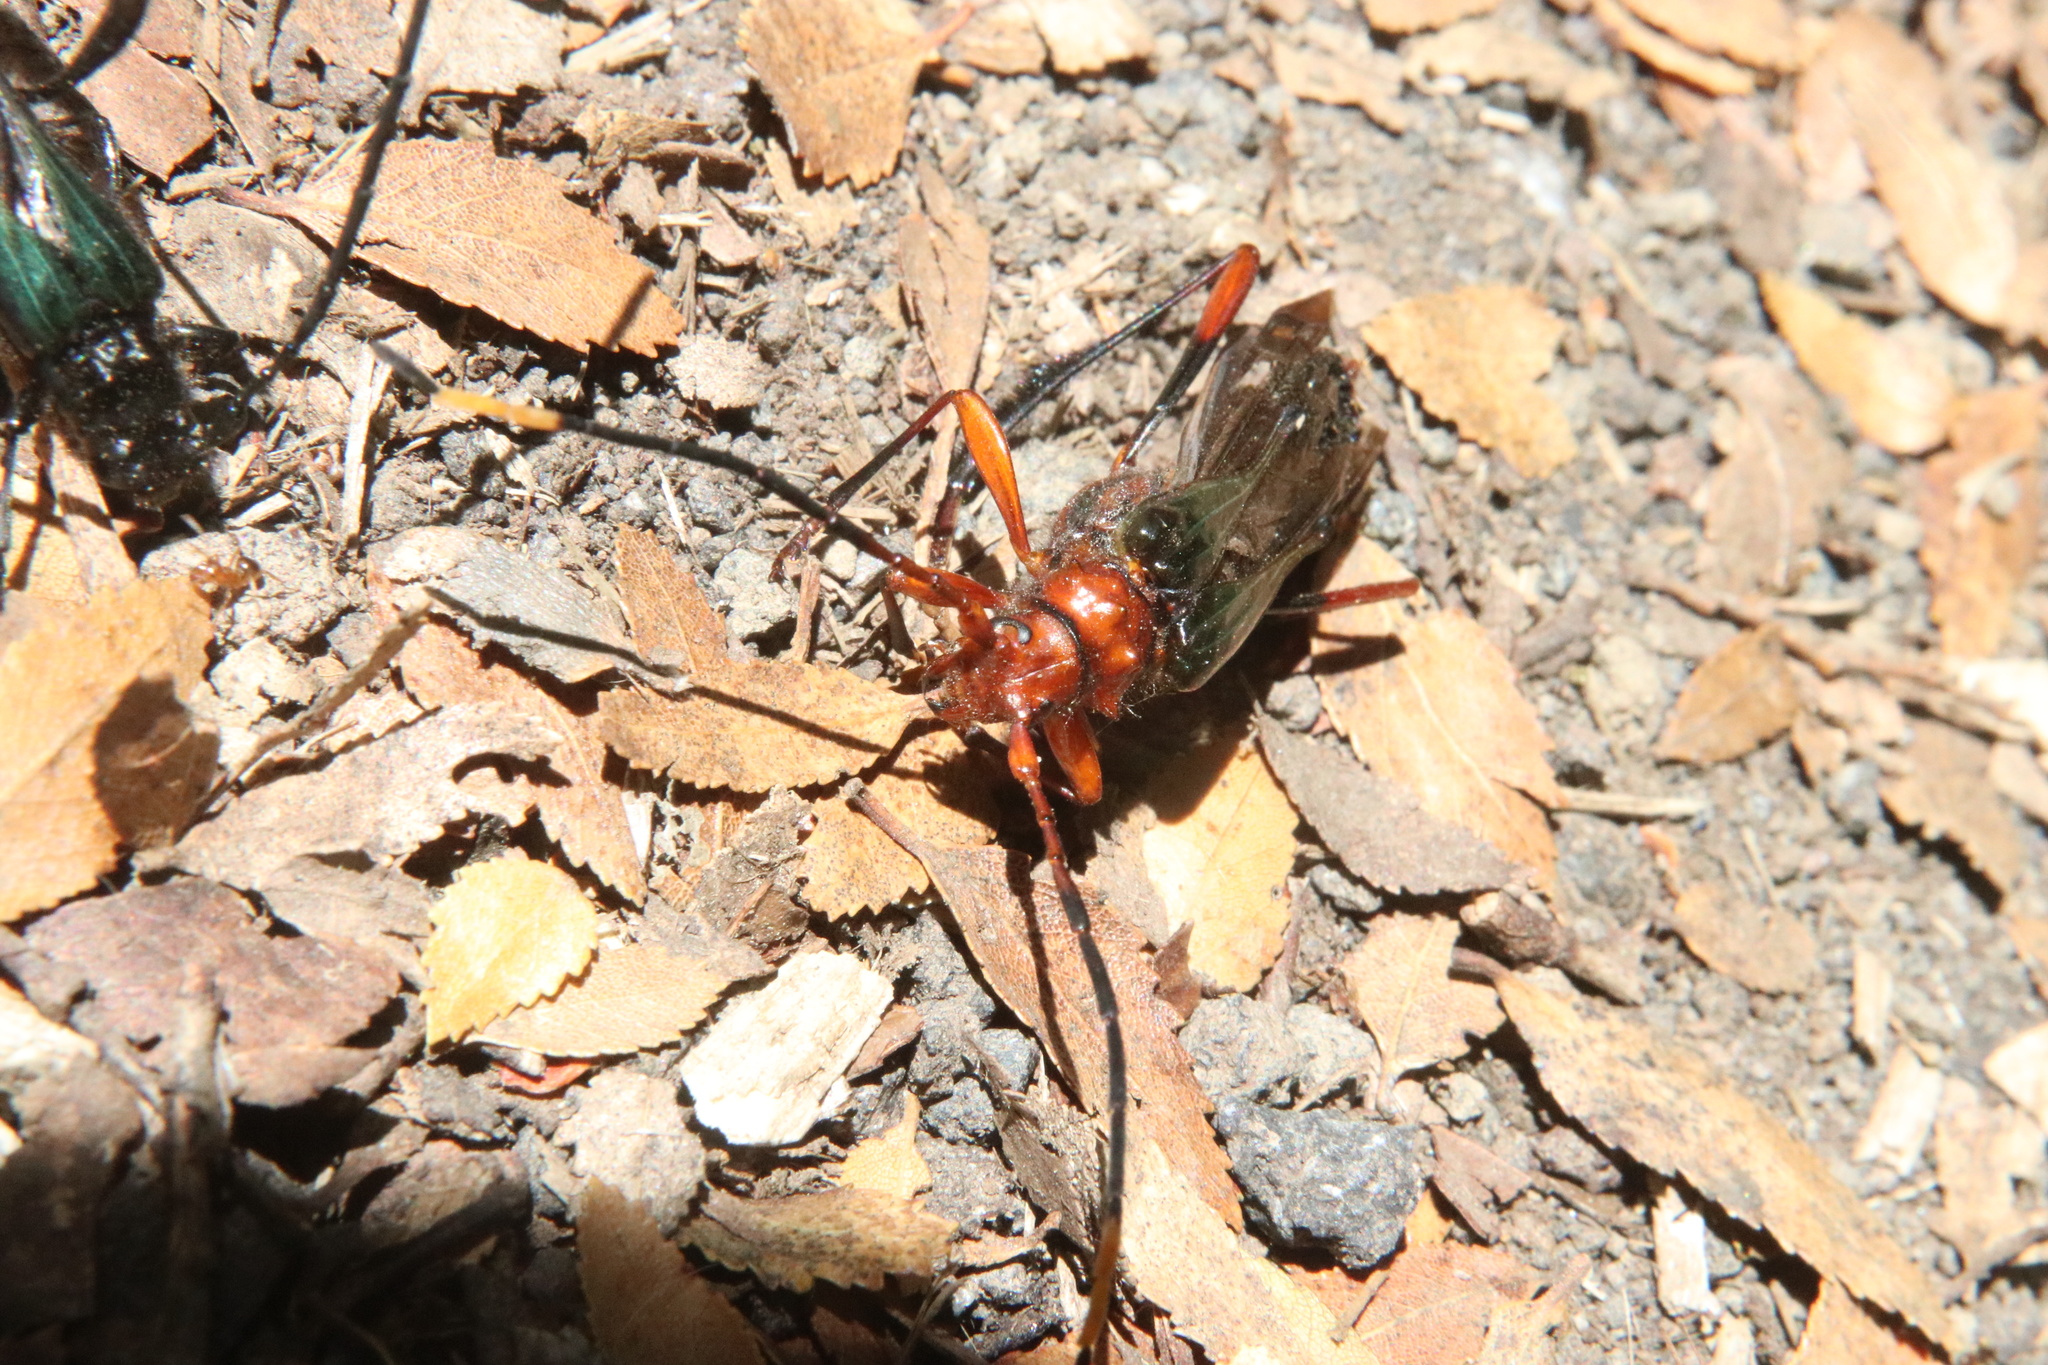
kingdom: Animalia
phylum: Arthropoda
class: Insecta
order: Coleoptera
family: Cerambycidae
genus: Planopus
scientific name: Planopus laniniensis
